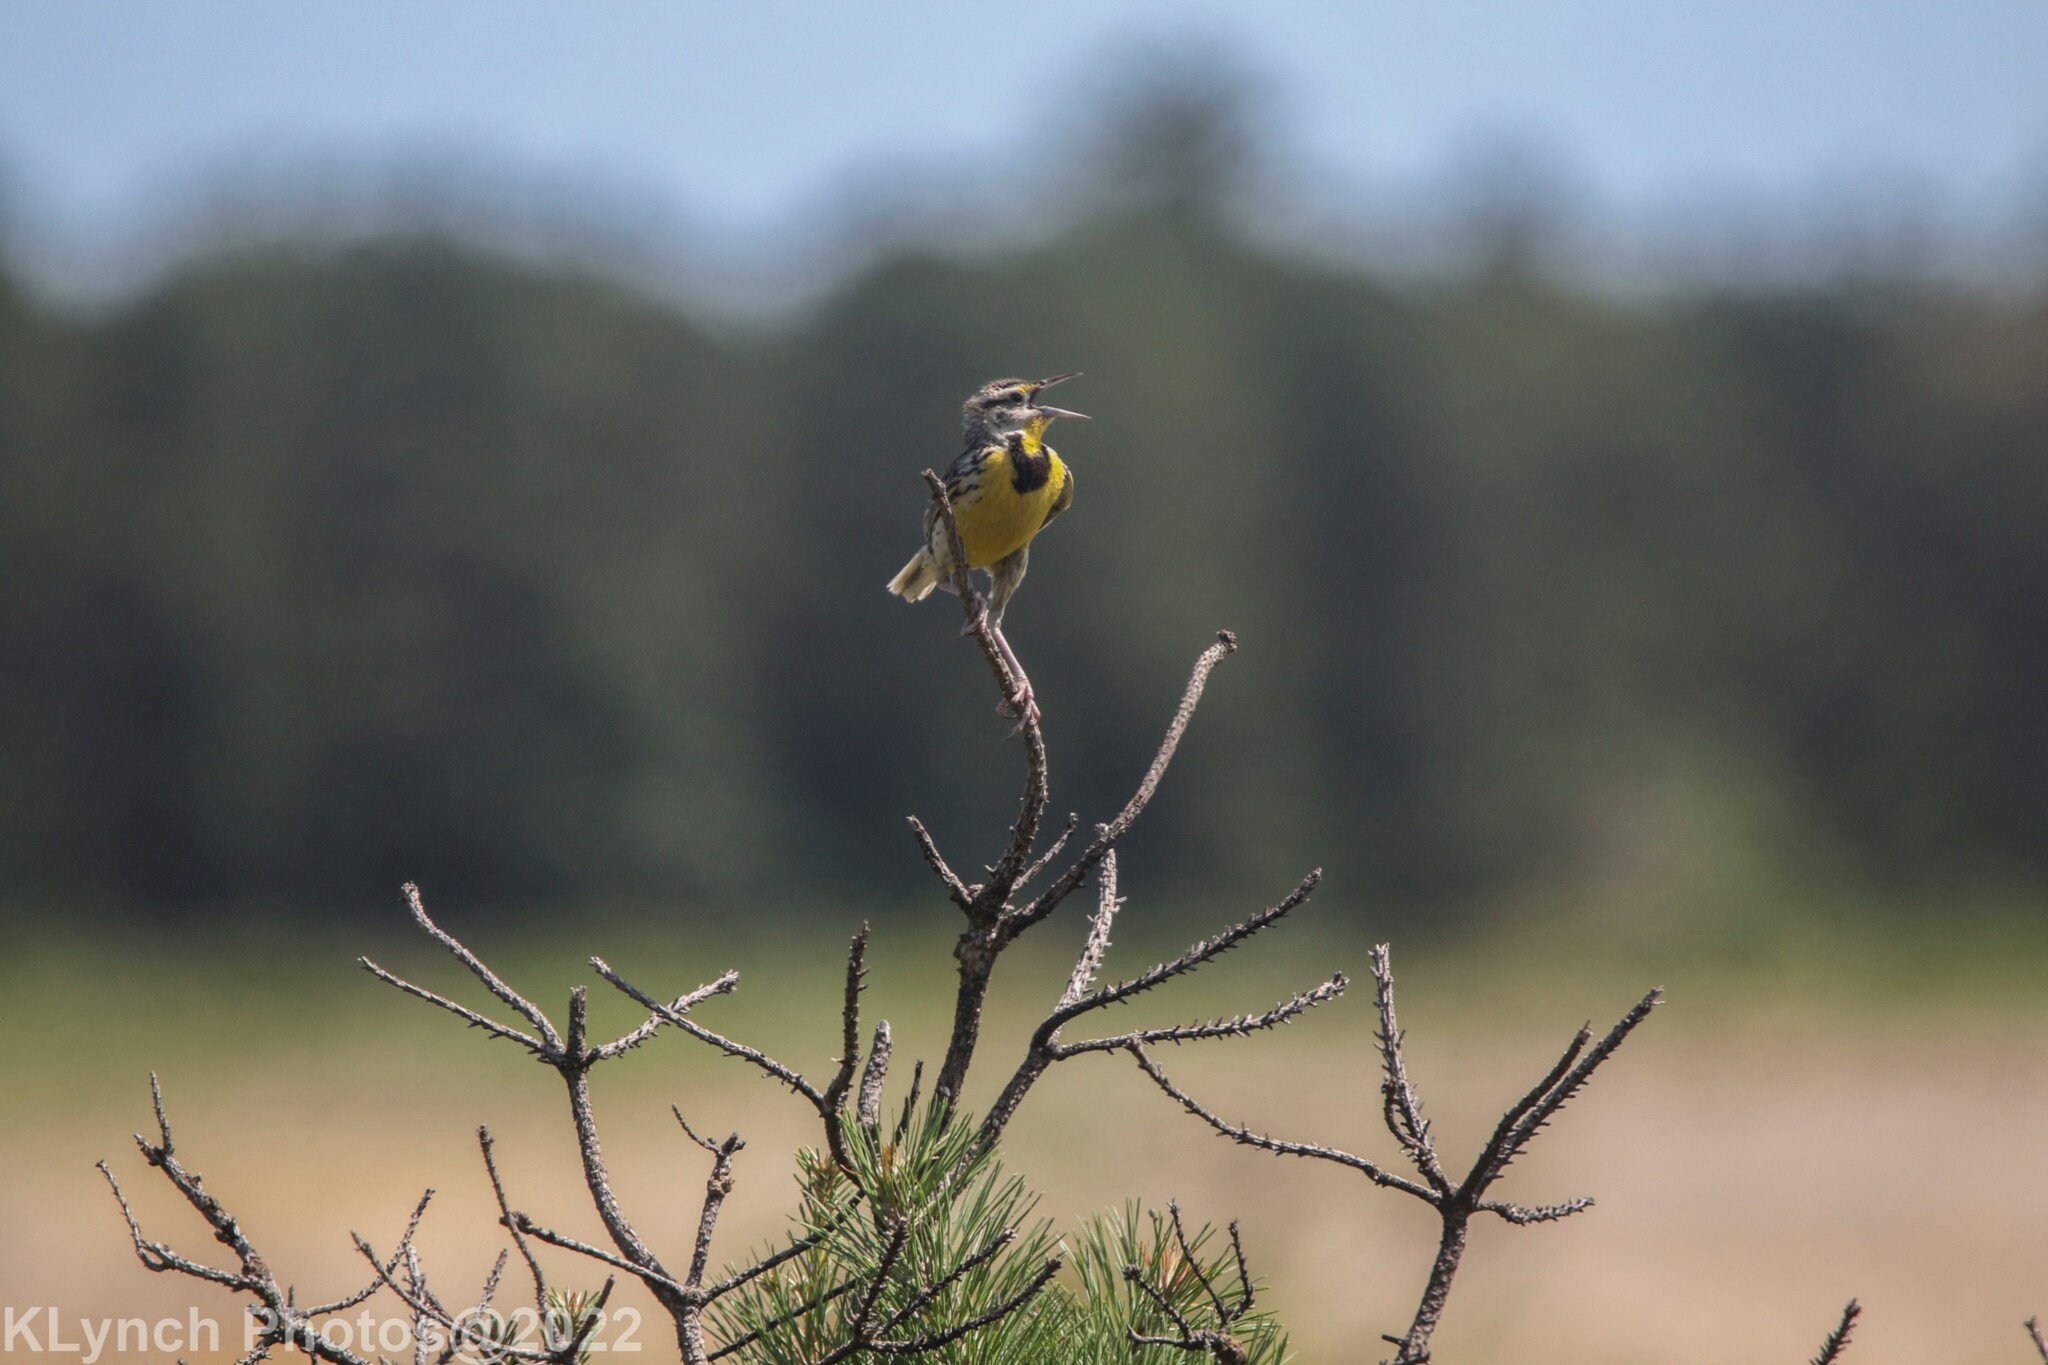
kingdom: Animalia
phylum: Chordata
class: Aves
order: Passeriformes
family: Icteridae
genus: Sturnella
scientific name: Sturnella magna
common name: Eastern meadowlark
